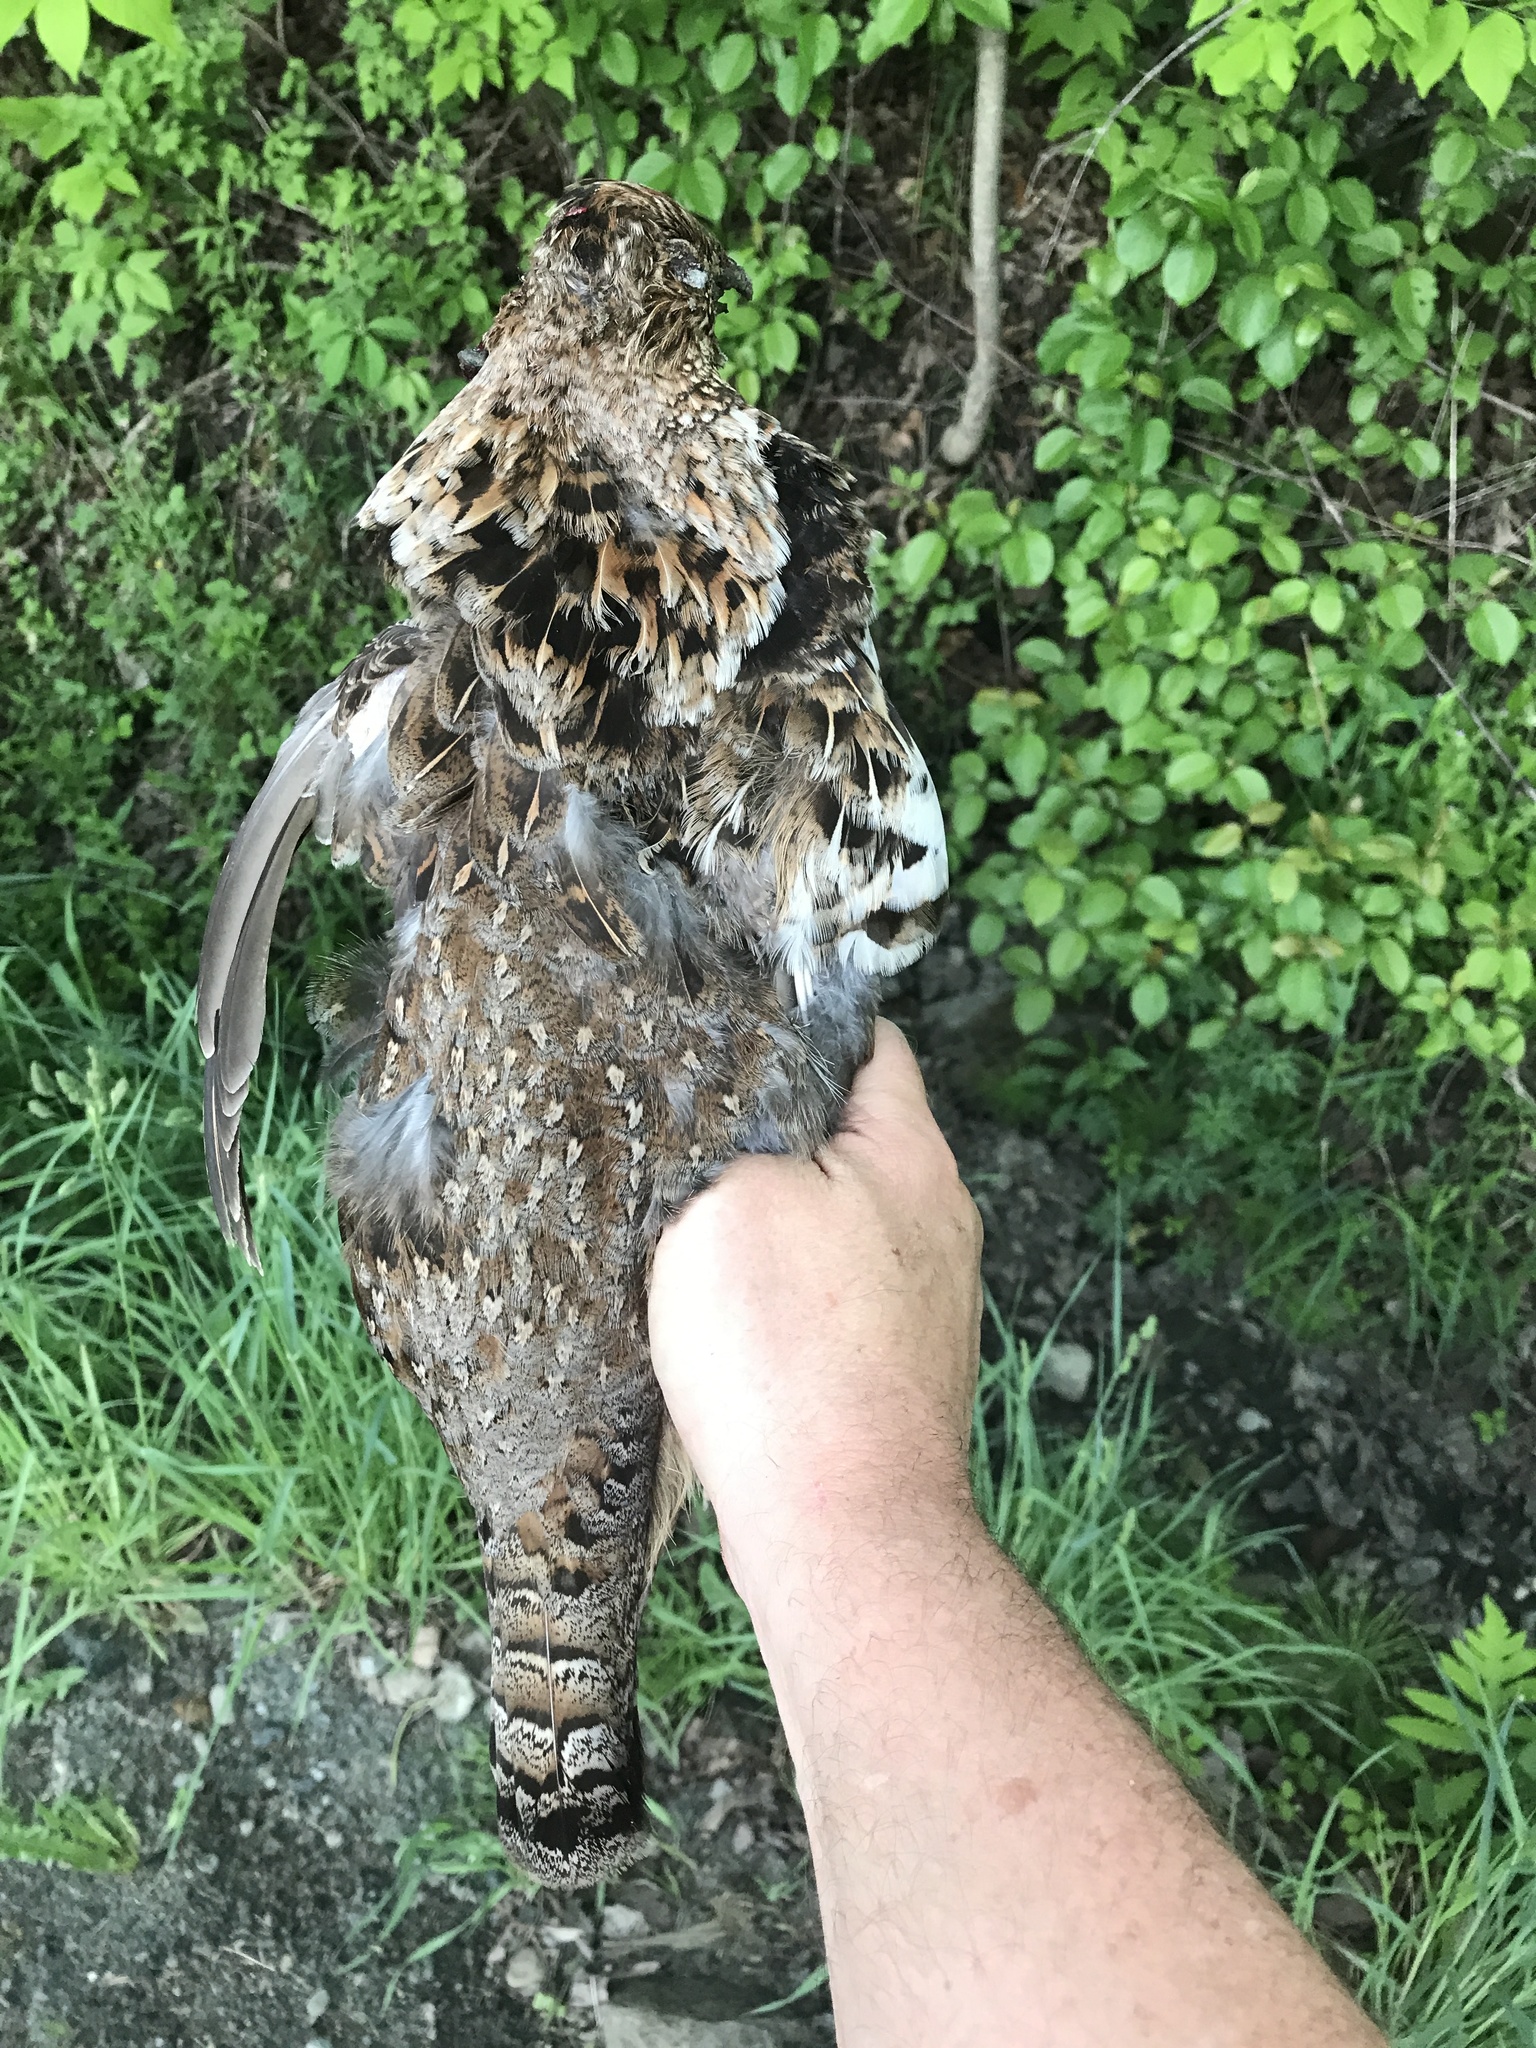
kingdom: Animalia
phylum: Chordata
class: Aves
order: Galliformes
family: Phasianidae
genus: Bonasa
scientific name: Bonasa umbellus
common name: Ruffed grouse
